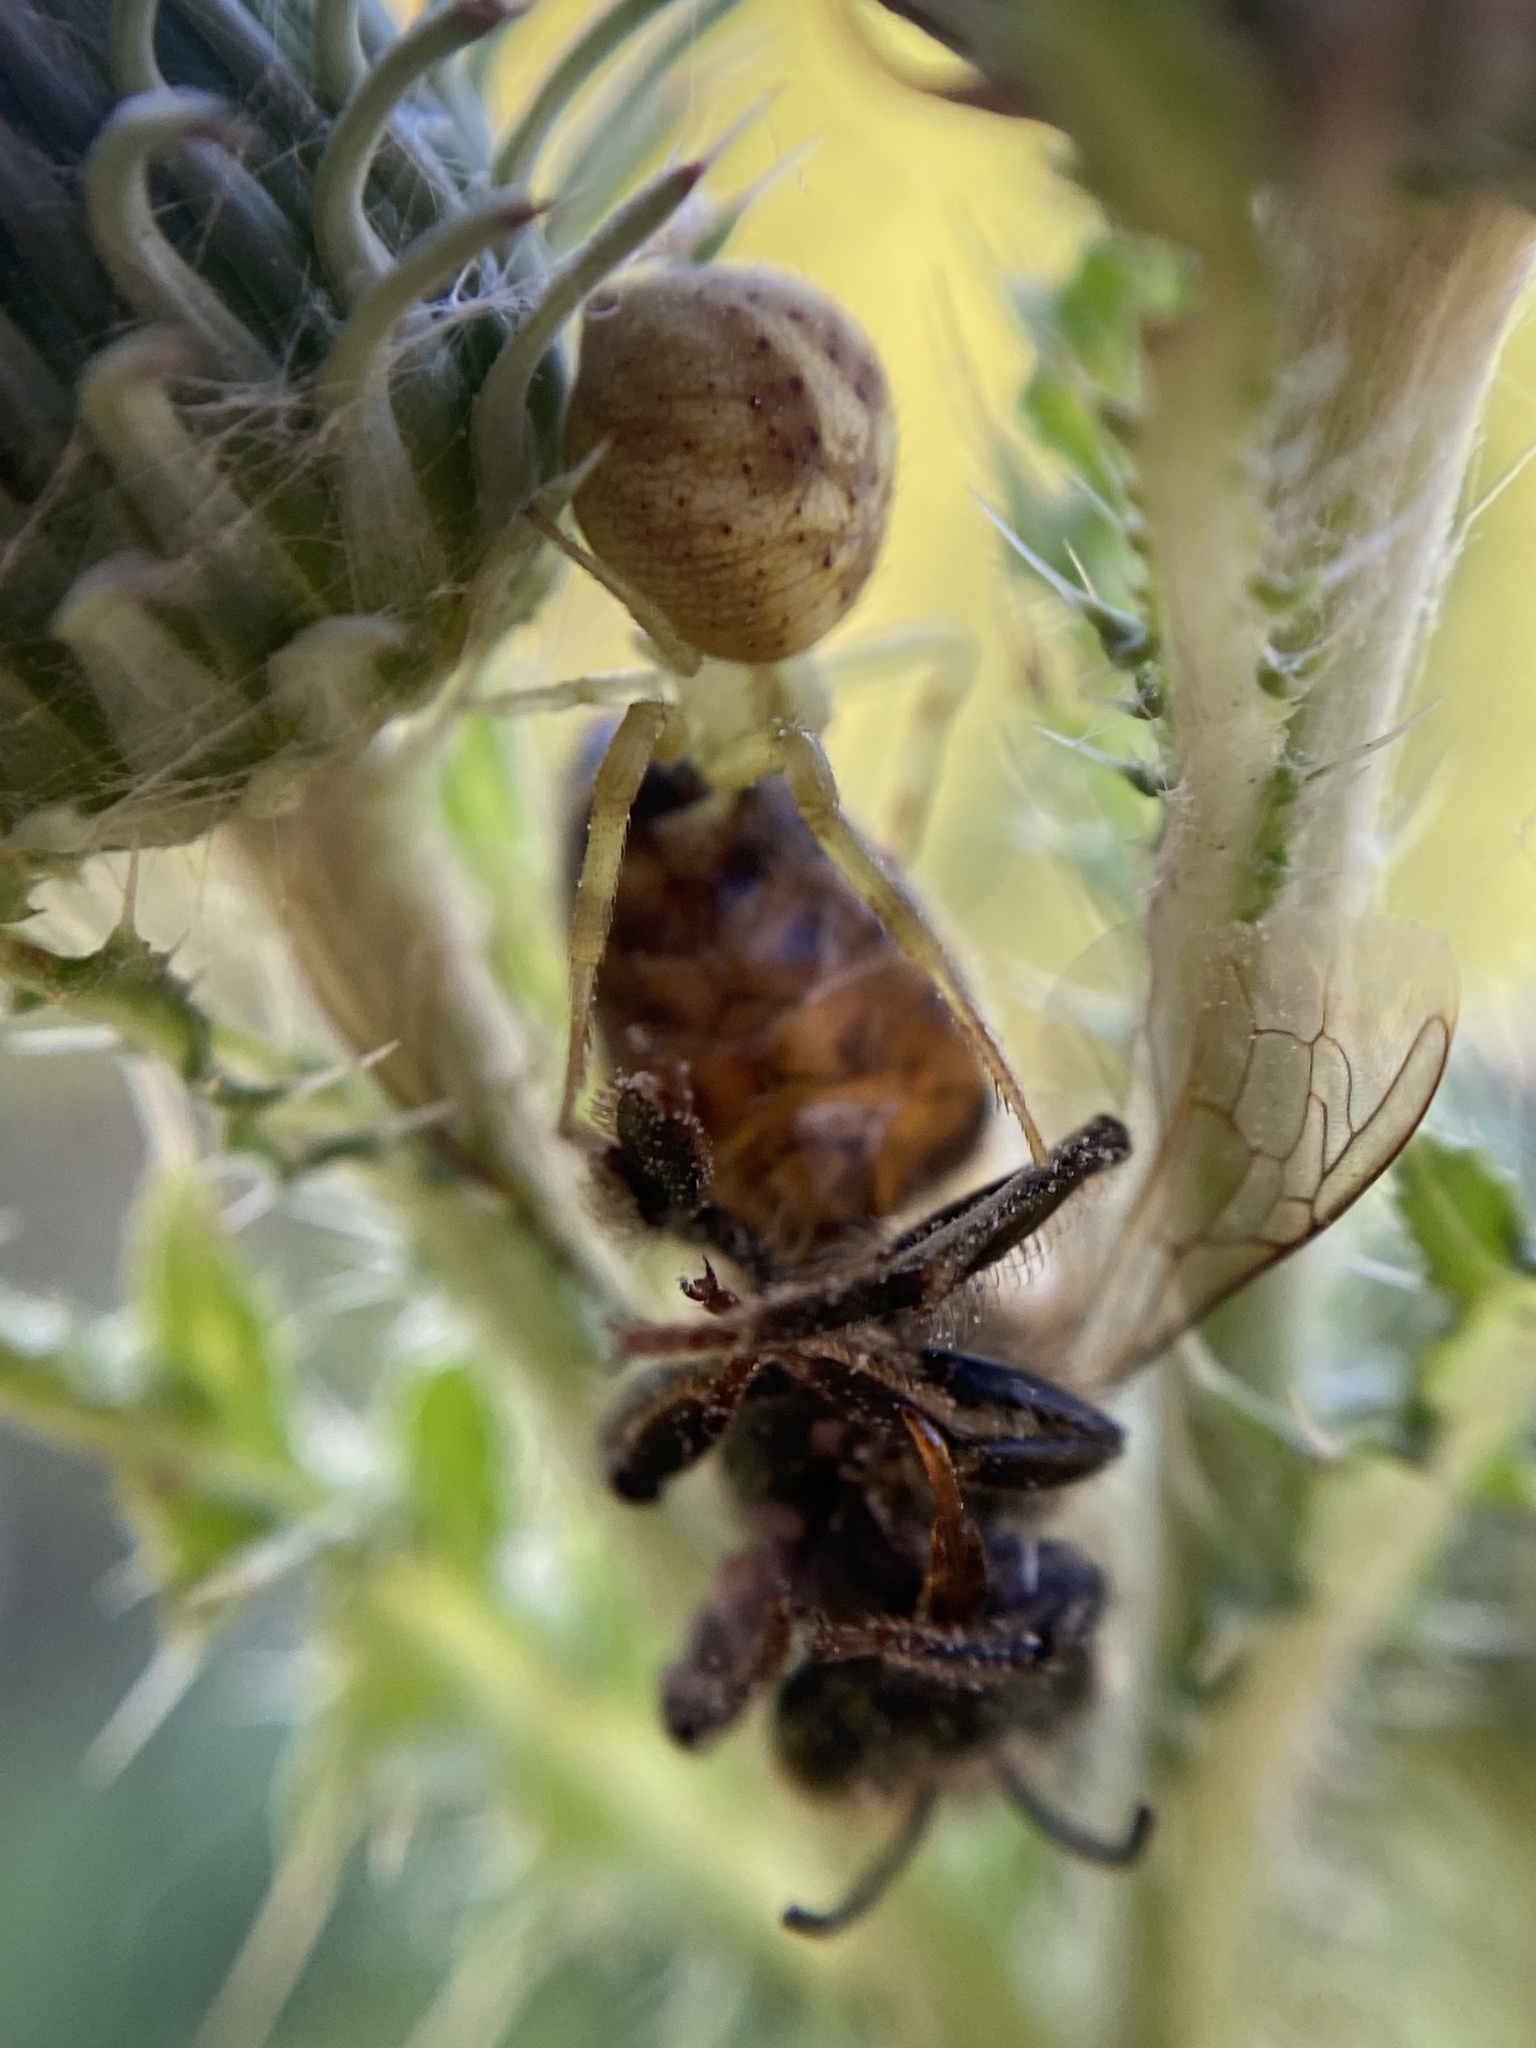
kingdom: Animalia
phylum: Arthropoda
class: Insecta
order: Hymenoptera
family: Apidae
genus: Apis
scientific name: Apis mellifera
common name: Honey bee
